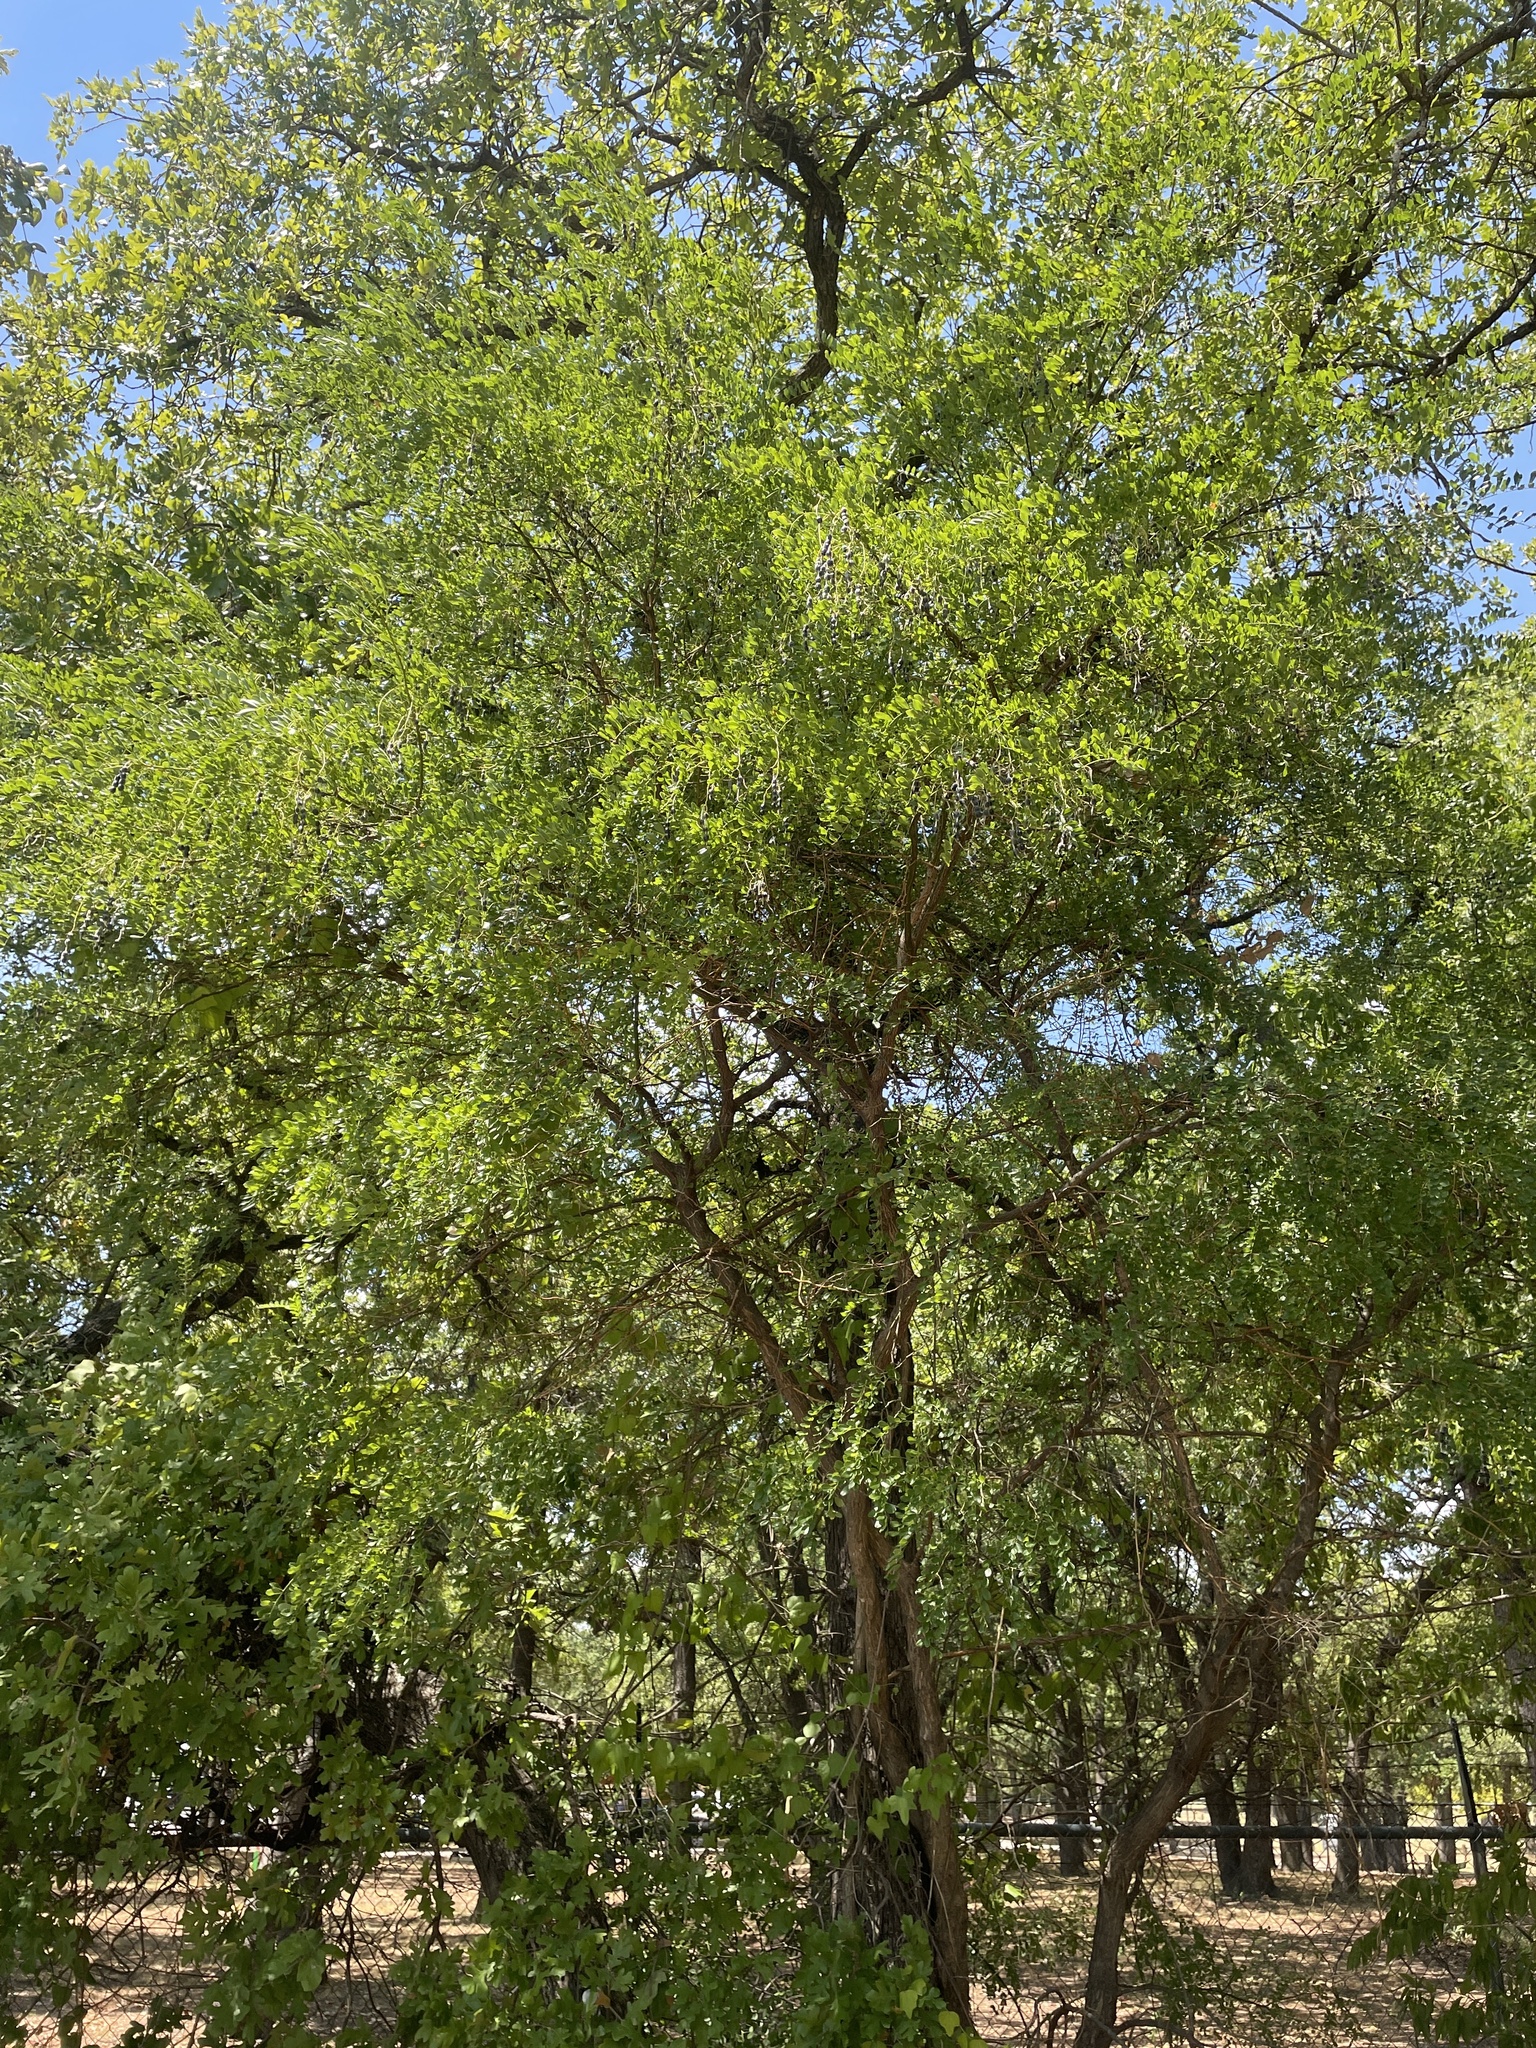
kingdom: Plantae
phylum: Tracheophyta
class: Magnoliopsida
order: Fabales
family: Fabaceae
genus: Styphnolobium
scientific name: Styphnolobium affine
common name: Texas sophora
